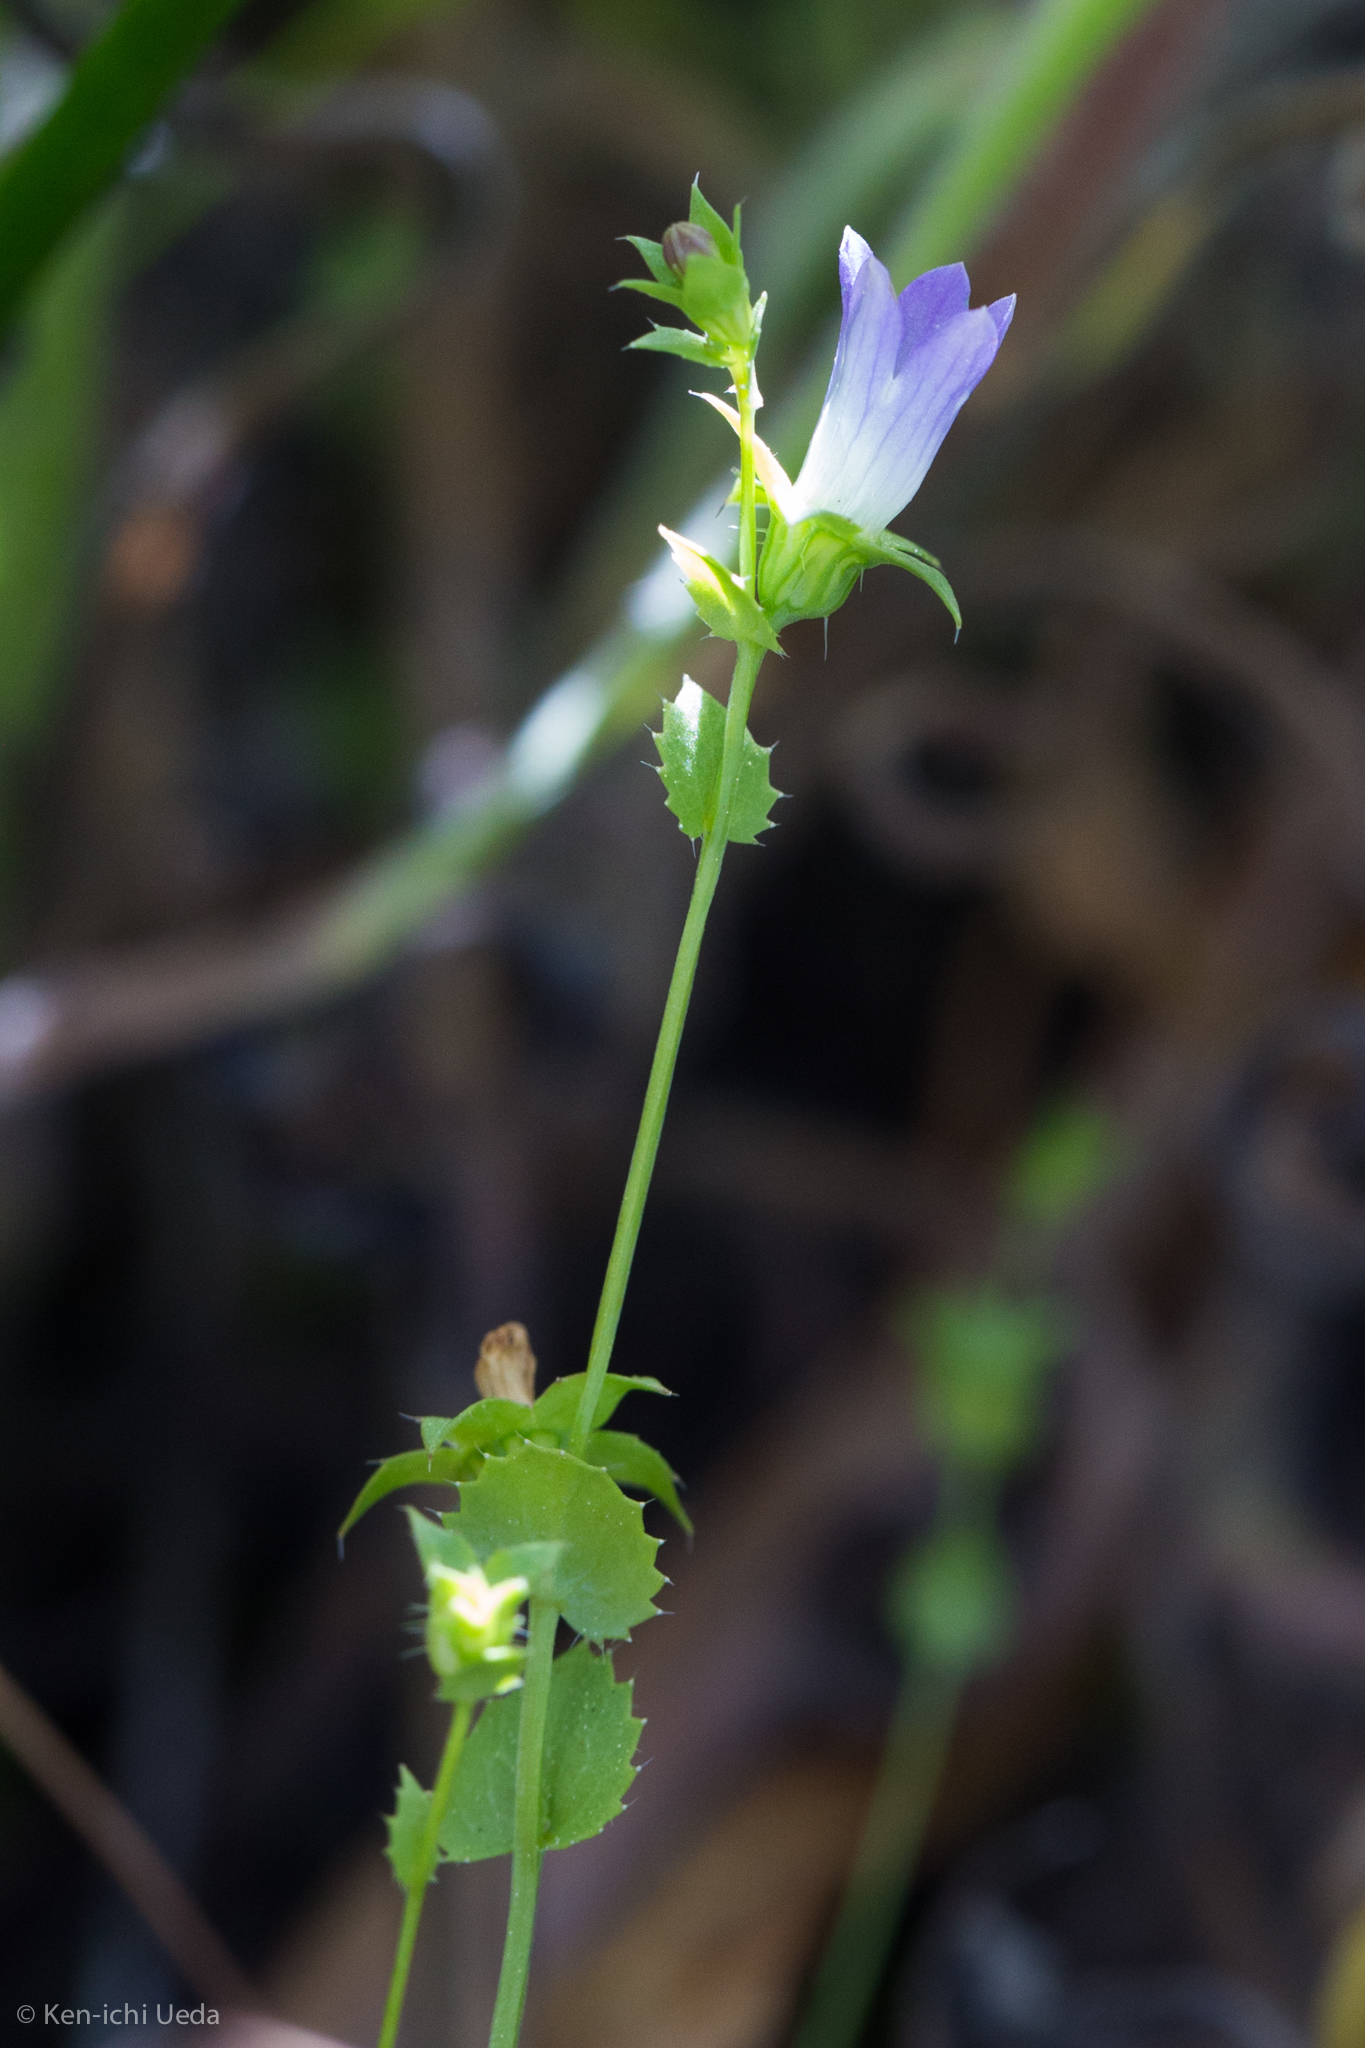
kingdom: Plantae
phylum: Tracheophyta
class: Magnoliopsida
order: Asterales
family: Campanulaceae
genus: Heterocodon
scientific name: Heterocodon rariflorum
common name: Rareflower heterocodon
